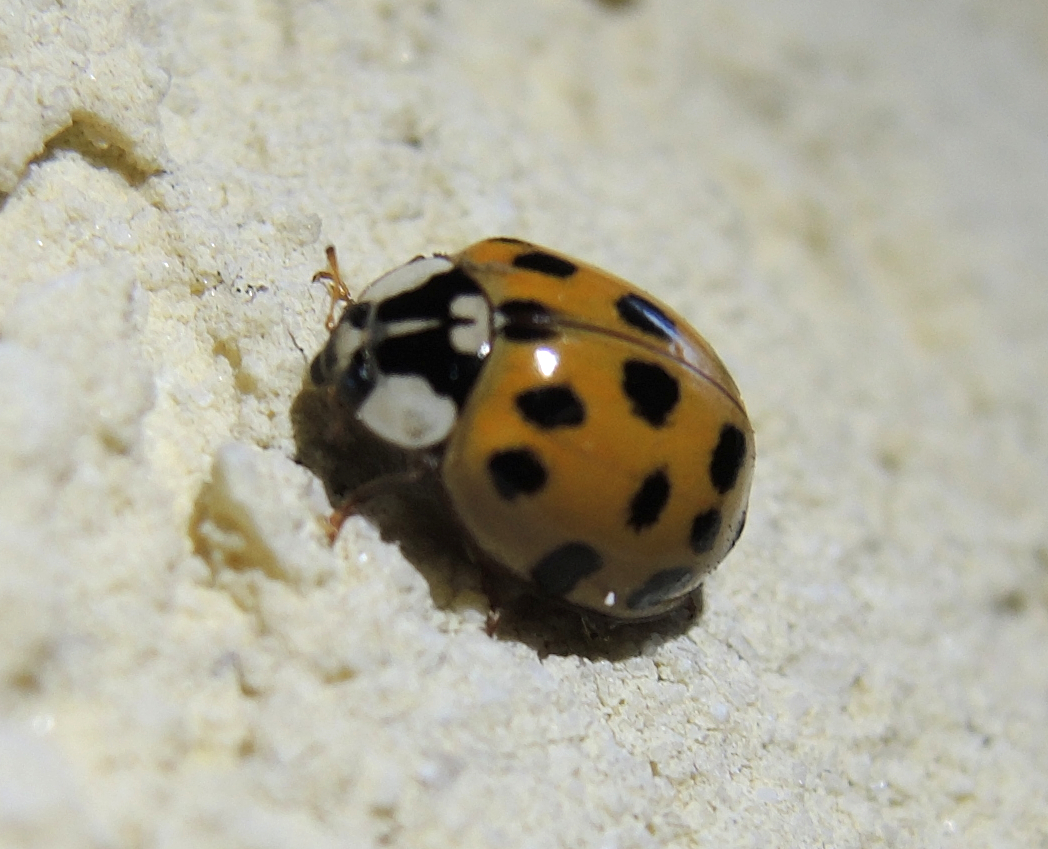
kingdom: Animalia
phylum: Arthropoda
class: Insecta
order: Coleoptera
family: Coccinellidae
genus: Harmonia
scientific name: Harmonia axyridis
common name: Harlequin ladybird
